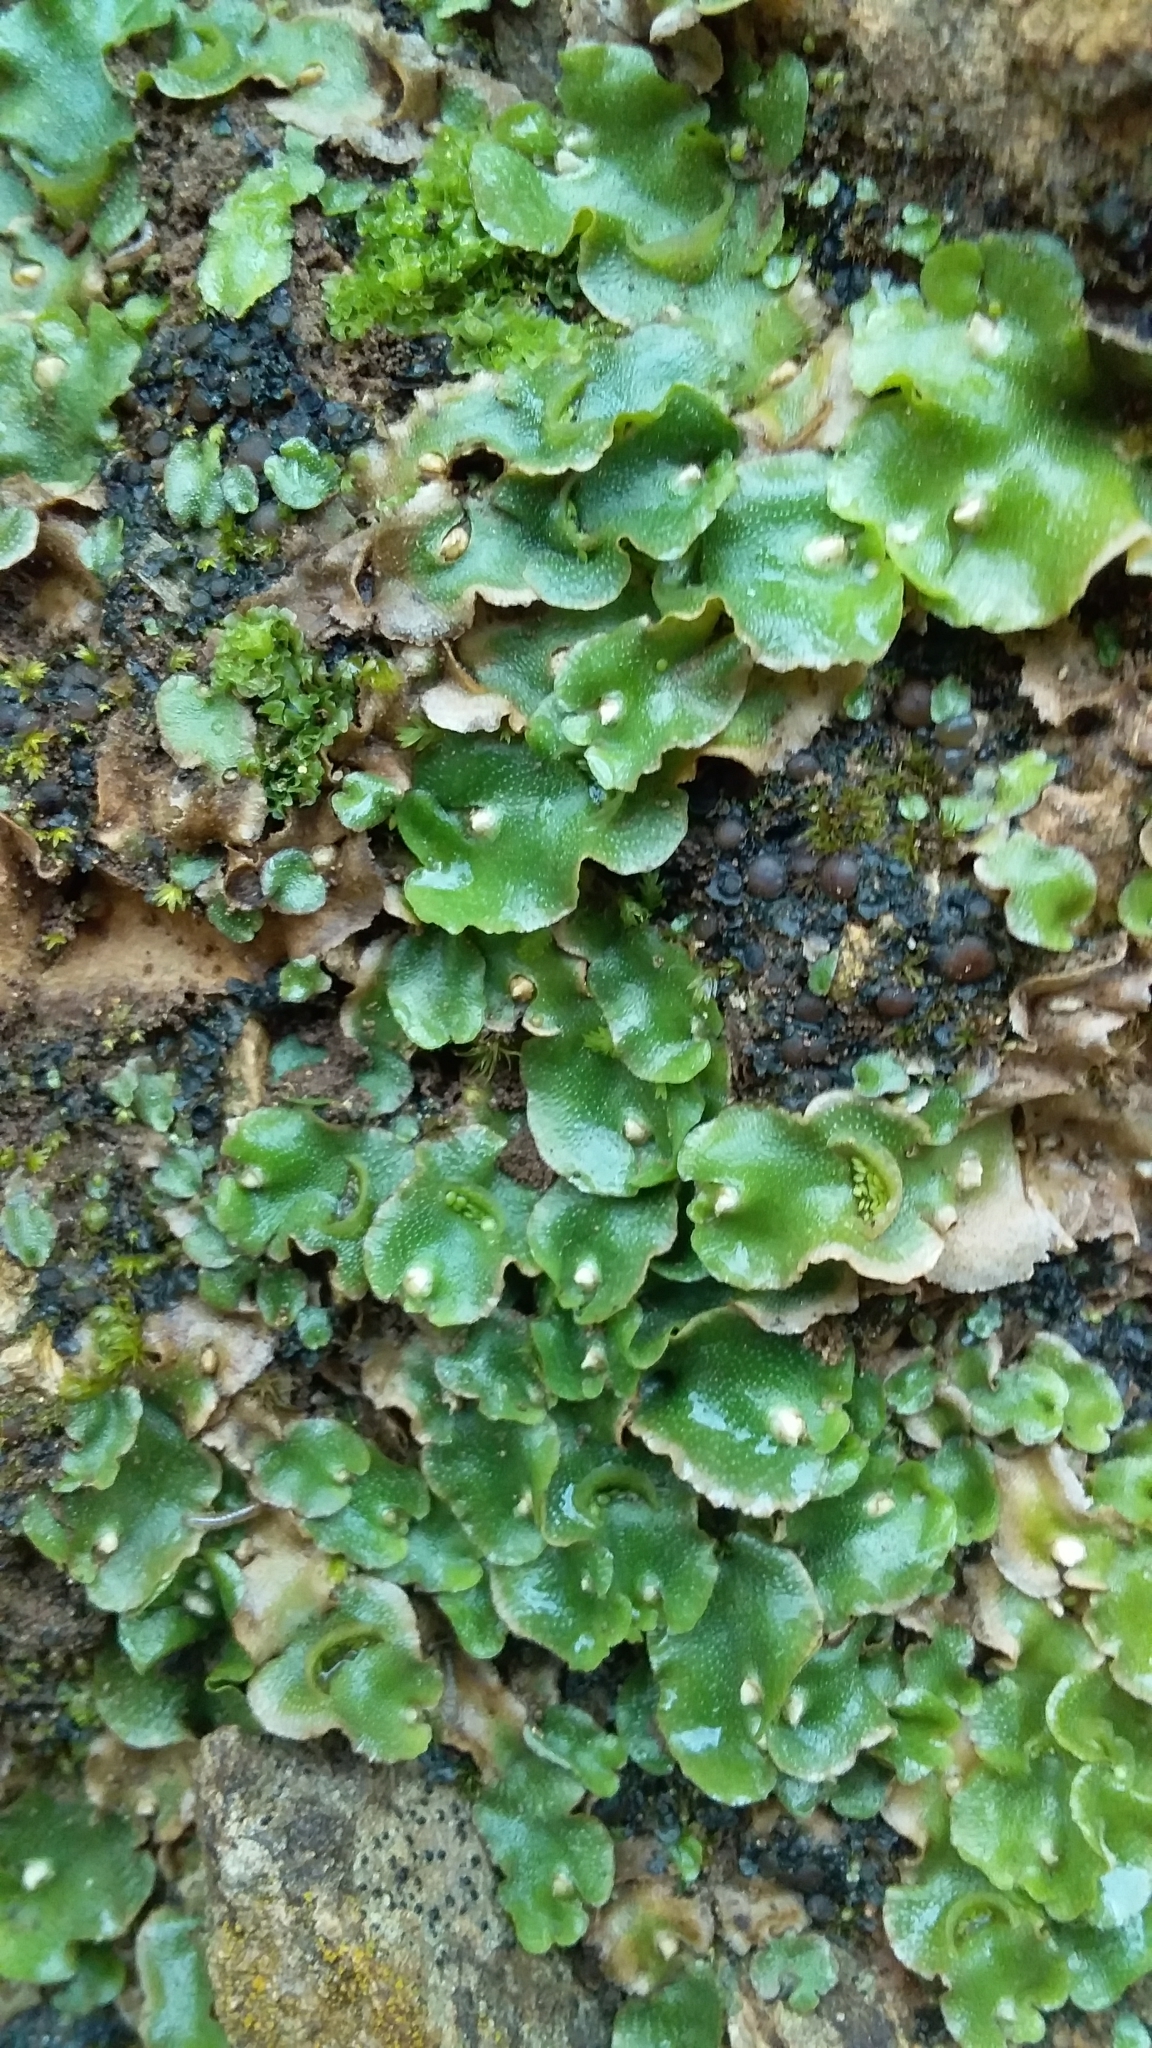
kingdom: Plantae
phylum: Marchantiophyta
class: Marchantiopsida
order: Lunulariales
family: Lunulariaceae
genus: Lunularia
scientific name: Lunularia cruciata
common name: Crescent-cup liverwort
